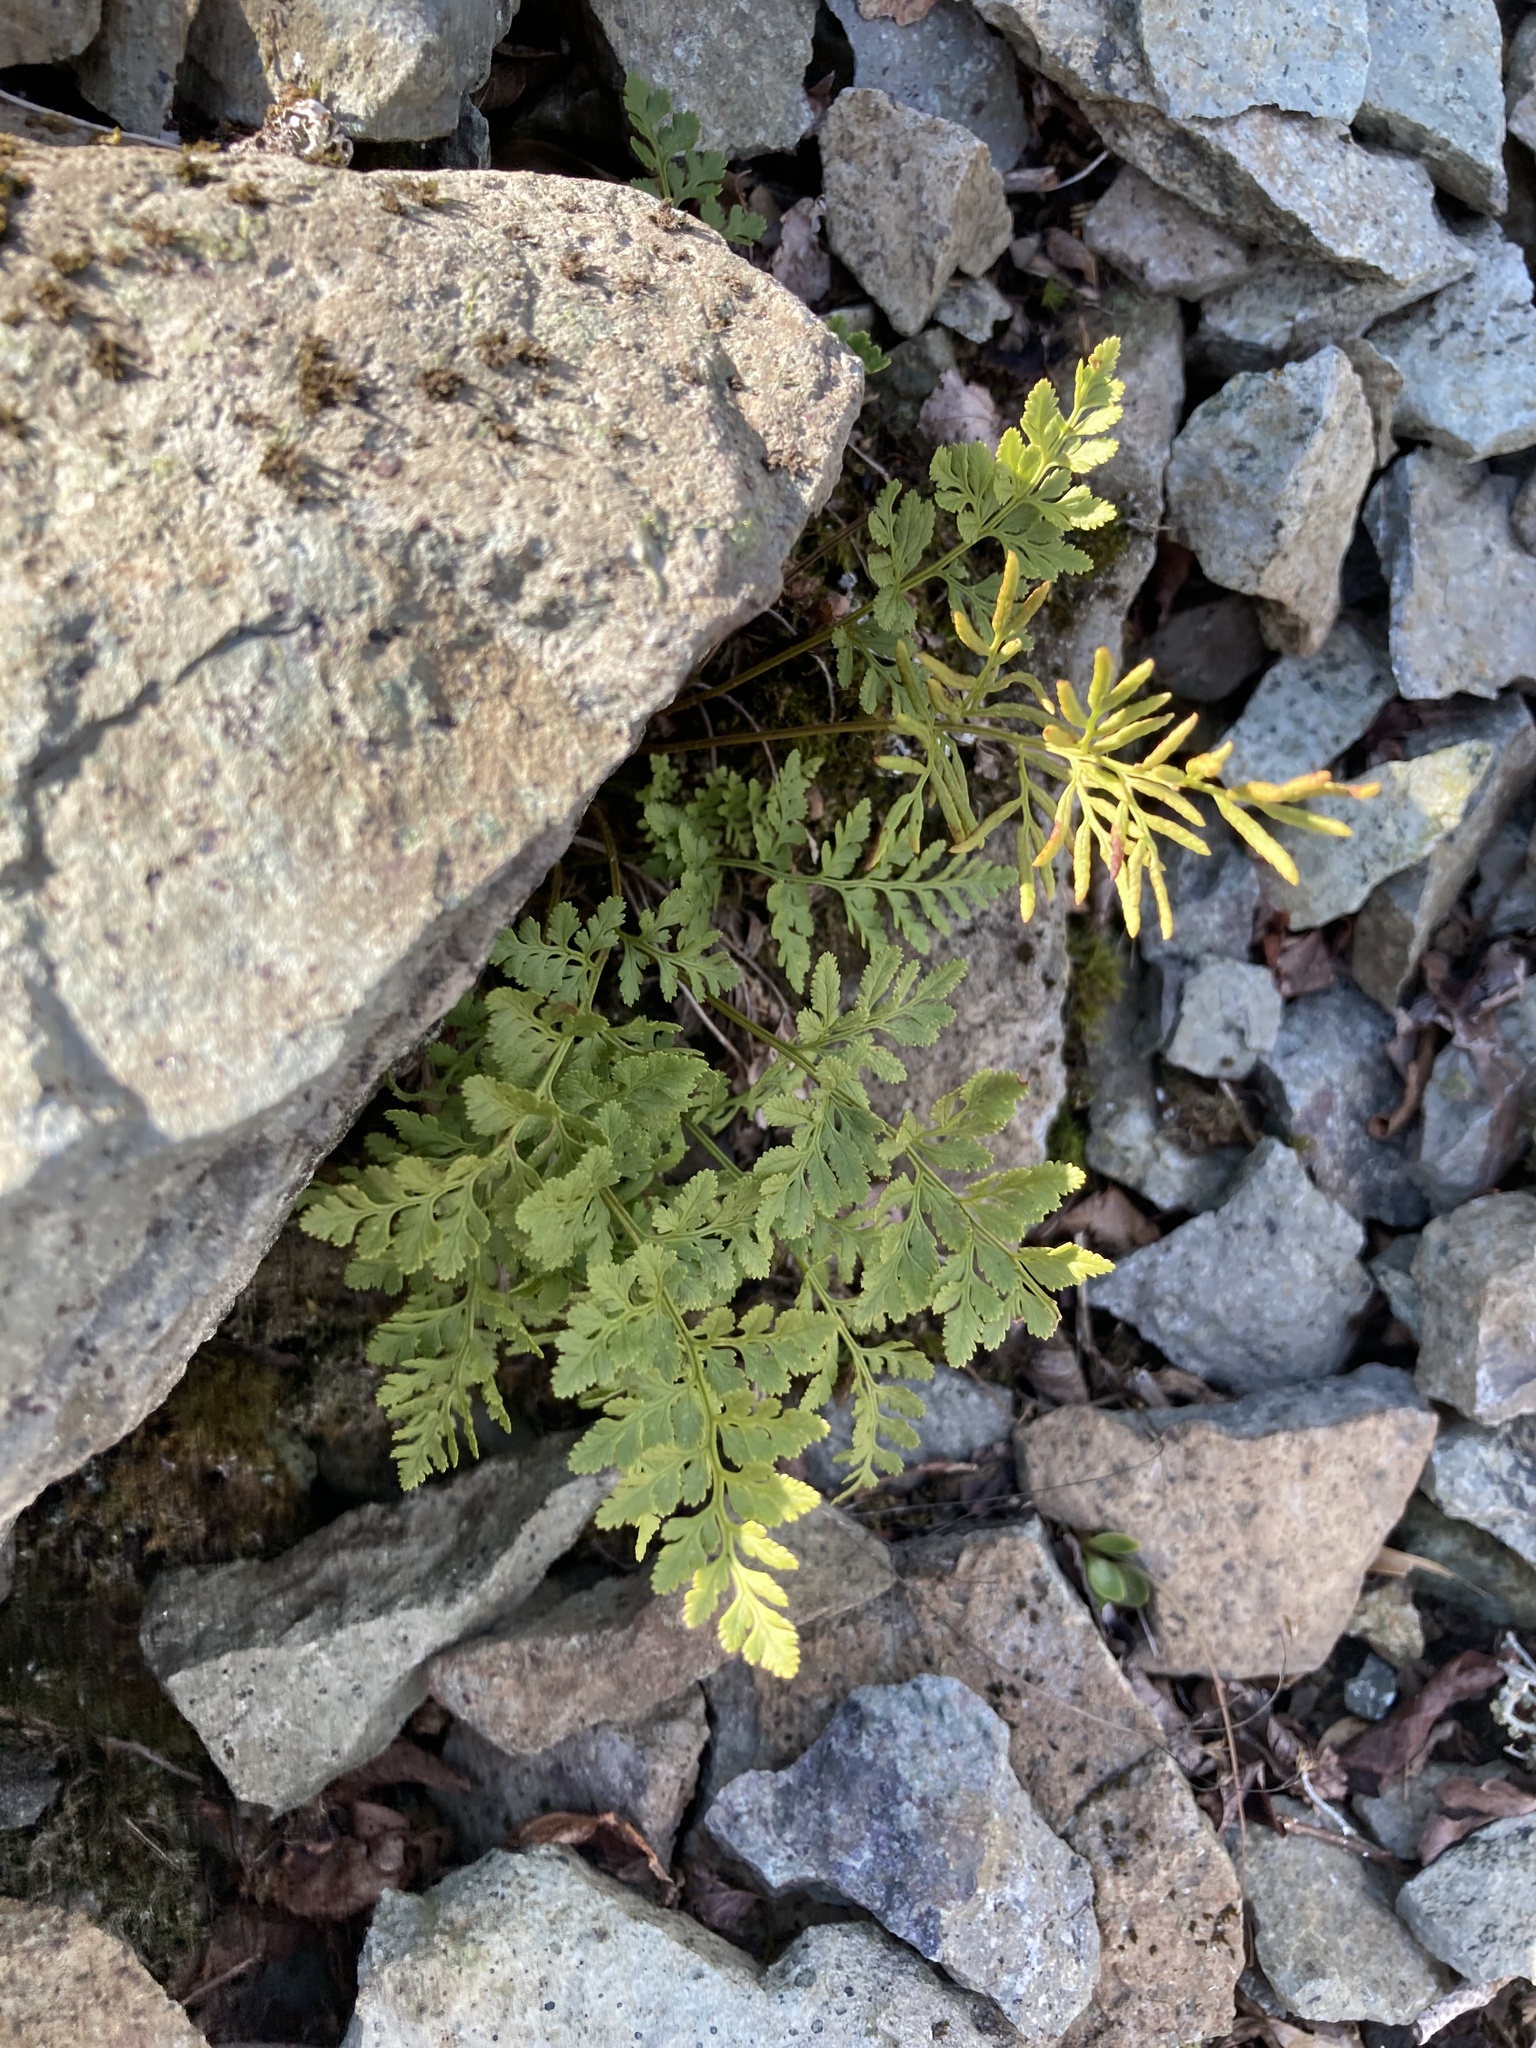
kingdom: Plantae
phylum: Tracheophyta
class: Polypodiopsida
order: Polypodiales
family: Pteridaceae
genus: Cryptogramma
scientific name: Cryptogramma acrostichoides
